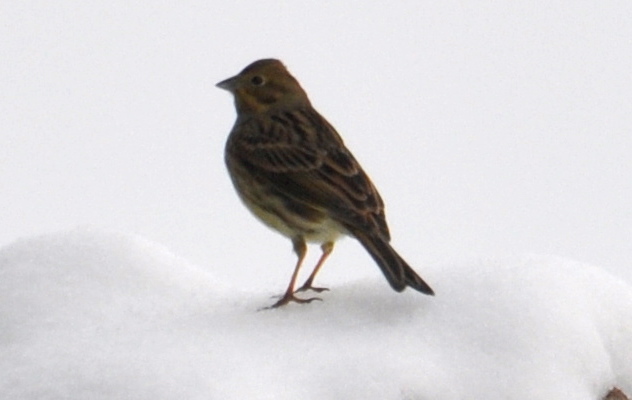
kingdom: Animalia
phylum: Chordata
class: Aves
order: Passeriformes
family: Emberizidae
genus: Emberiza
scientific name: Emberiza citrinella
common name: Yellowhammer
